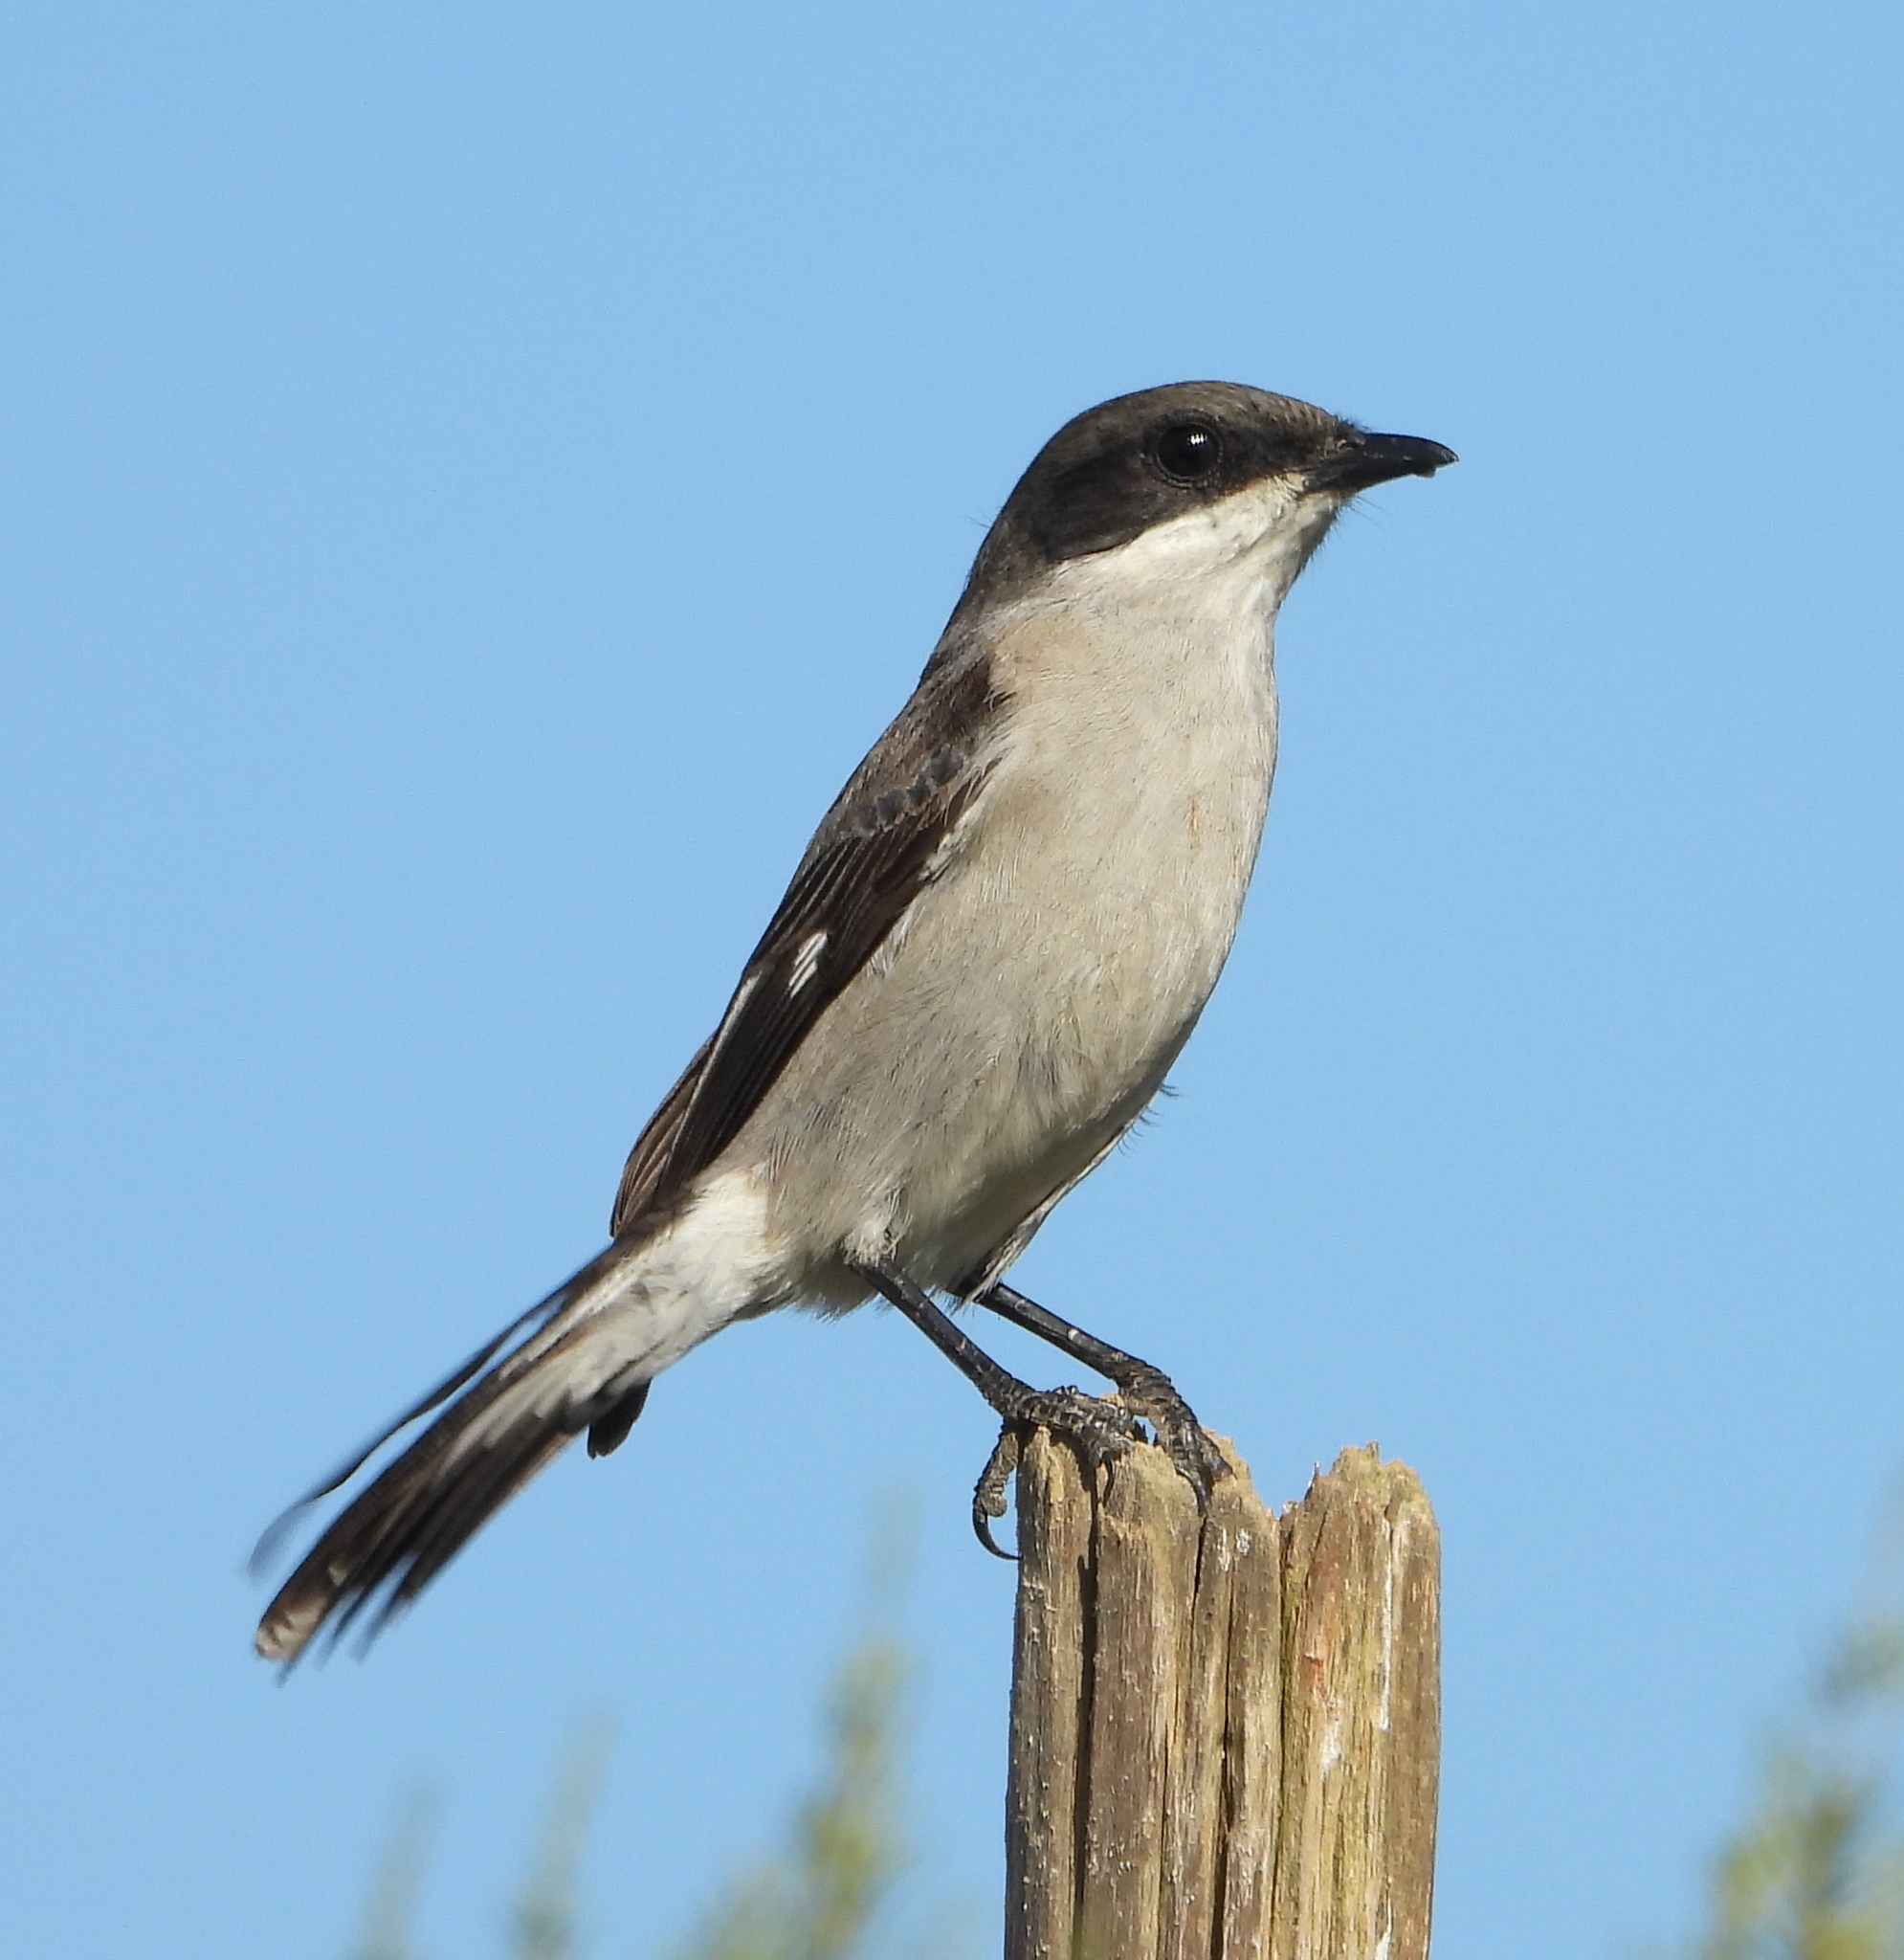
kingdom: Animalia
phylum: Chordata
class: Aves
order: Passeriformes
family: Muscicapidae
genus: Sigelus
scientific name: Sigelus silens
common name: Fiscal flycatcher
